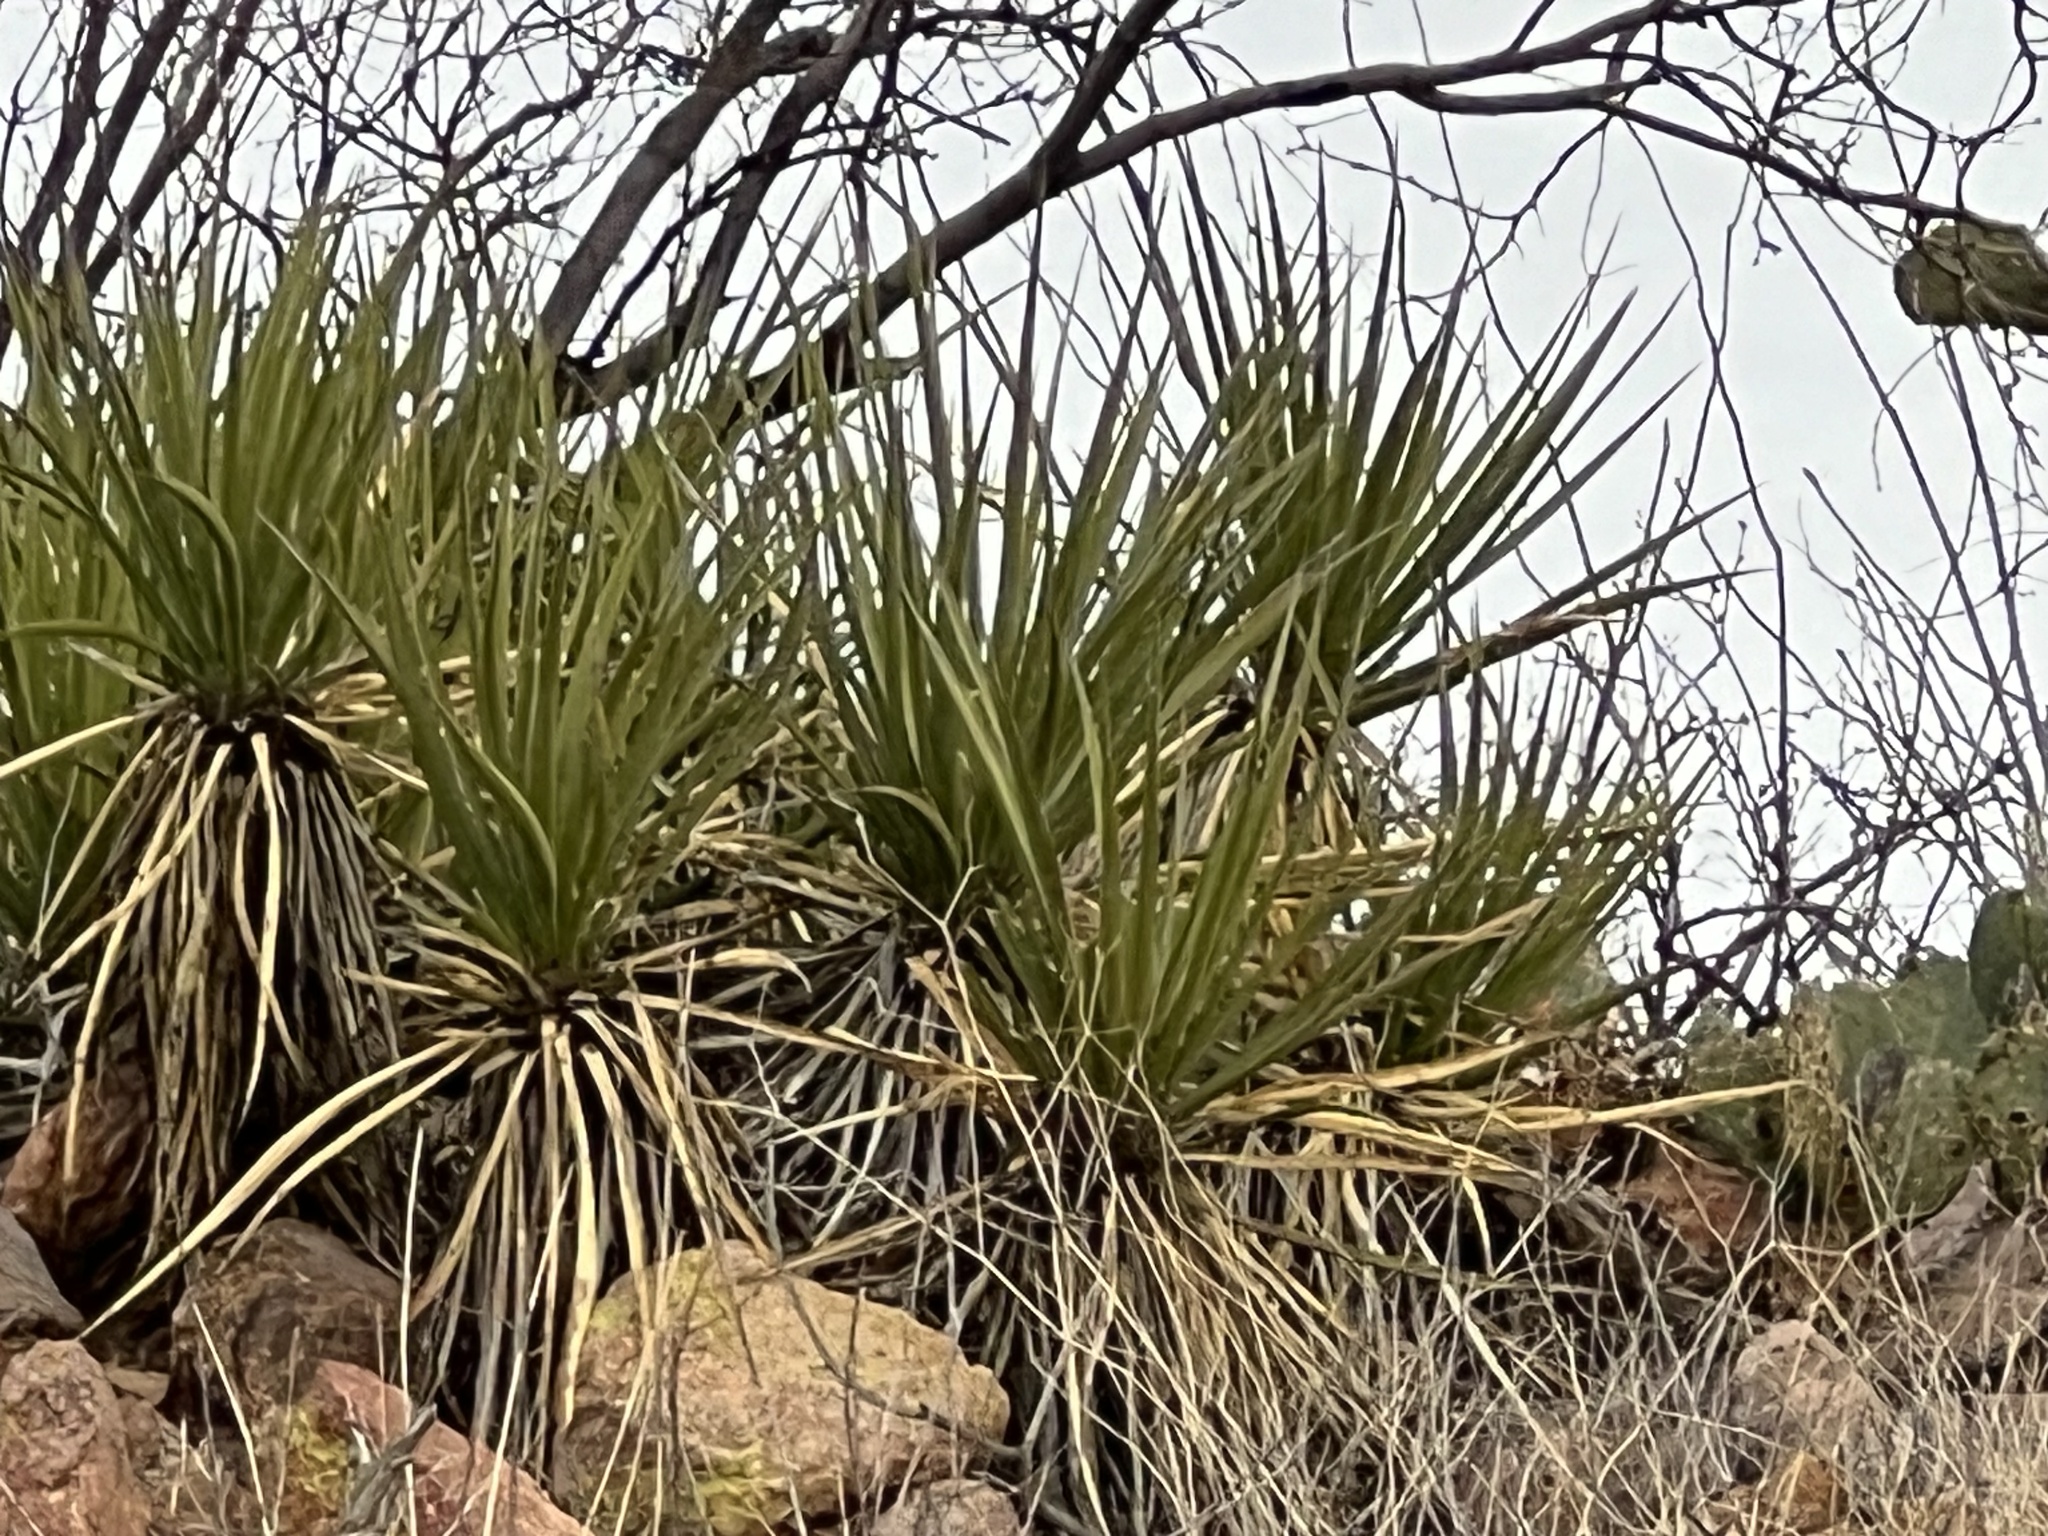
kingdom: Plantae
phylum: Tracheophyta
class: Liliopsida
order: Asparagales
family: Asparagaceae
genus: Yucca
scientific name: Yucca baccata
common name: Banana yucca
